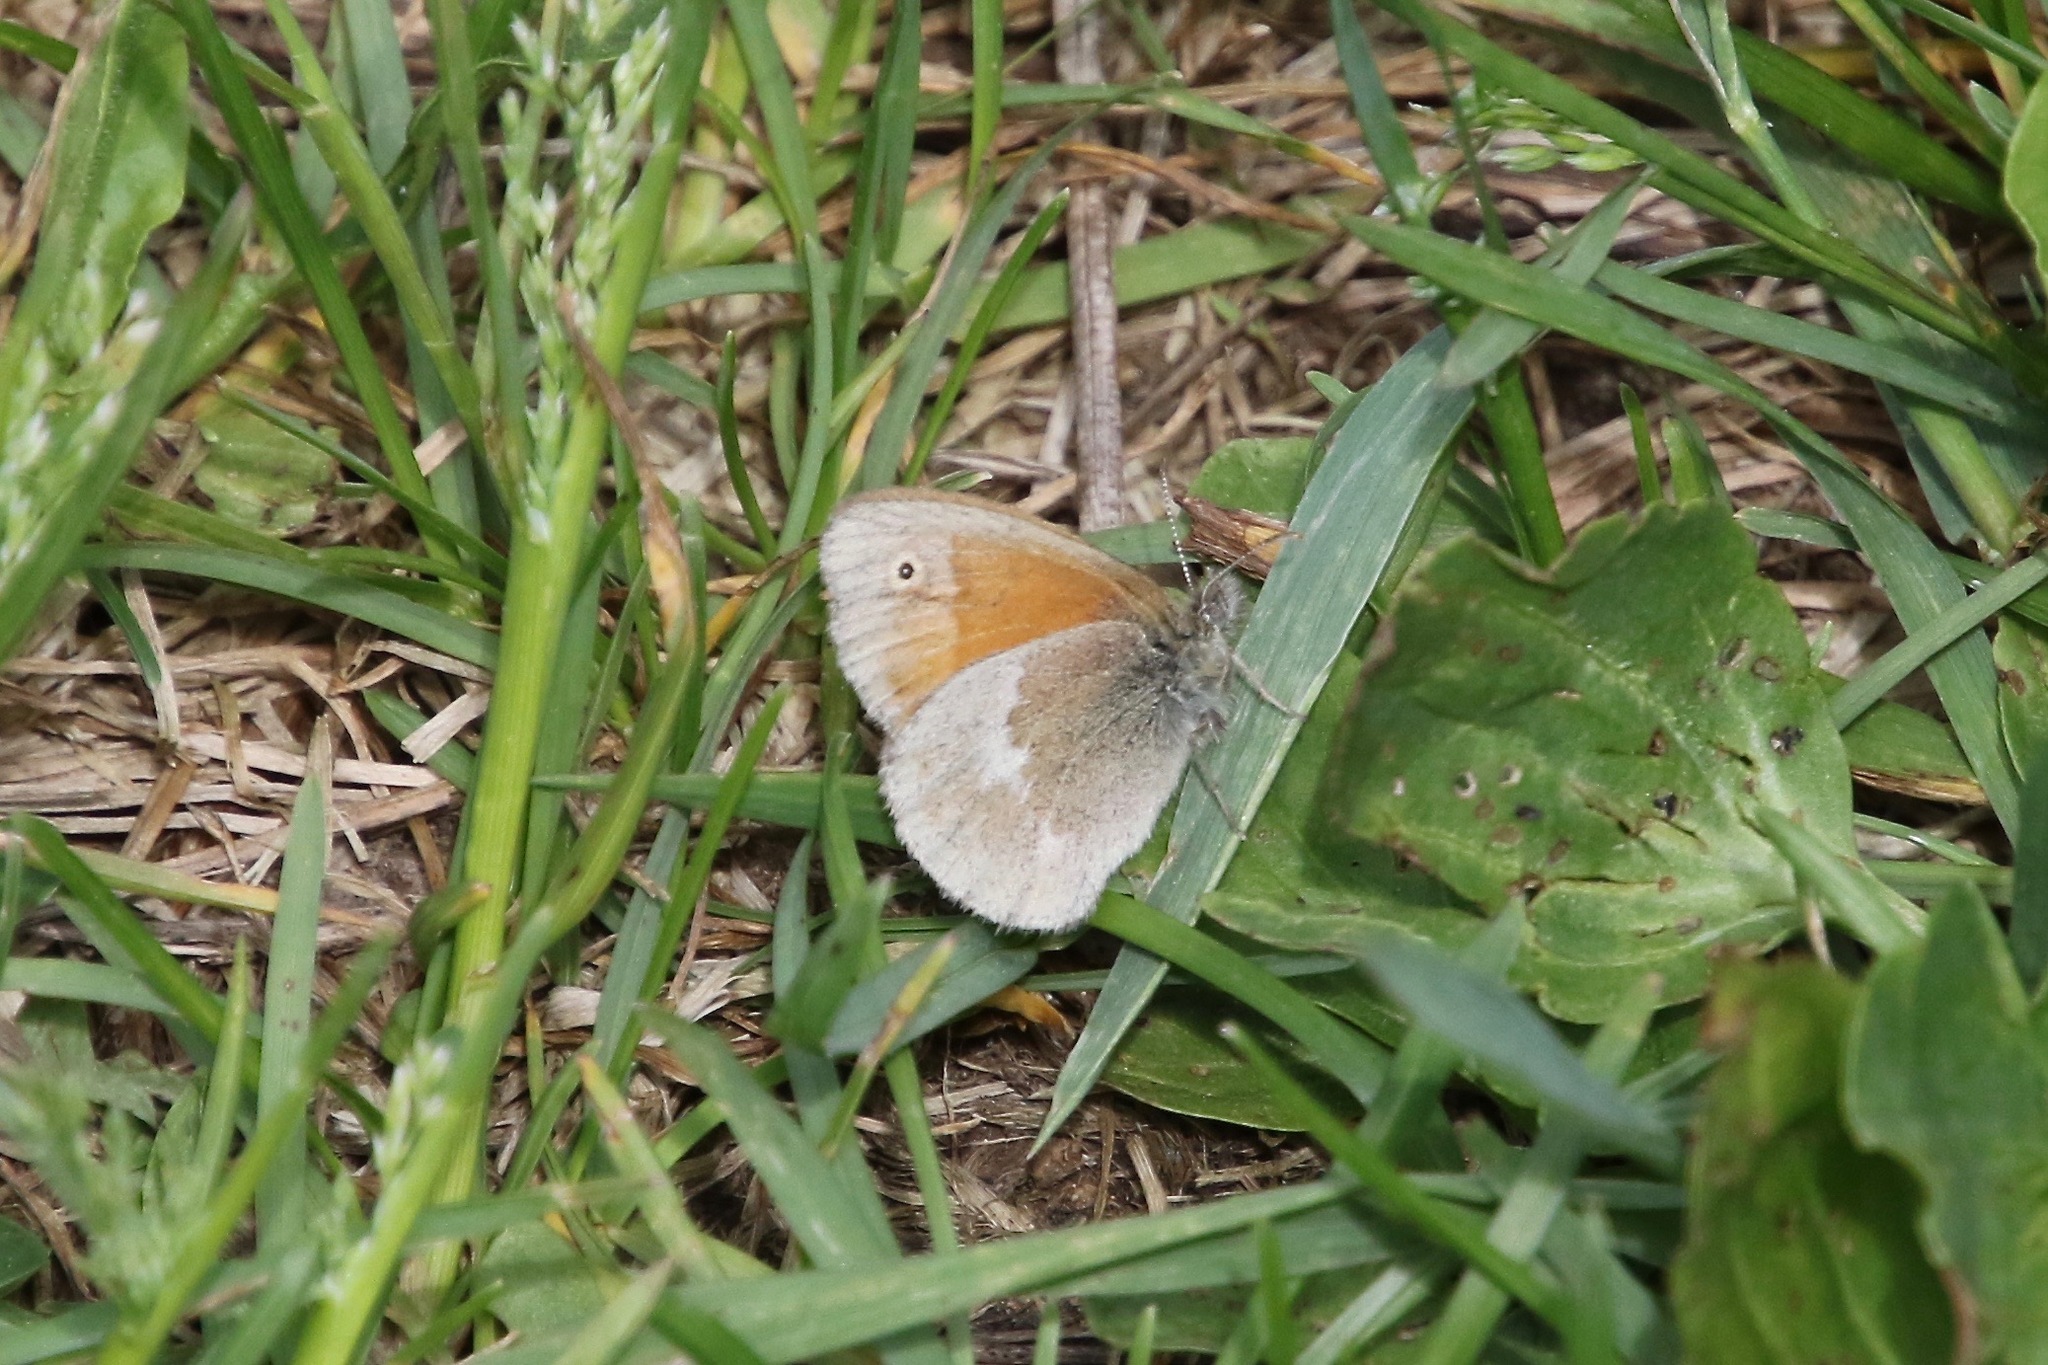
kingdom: Animalia
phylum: Arthropoda
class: Insecta
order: Lepidoptera
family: Nymphalidae
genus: Coenonympha
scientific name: Coenonympha california
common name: Common ringlet
